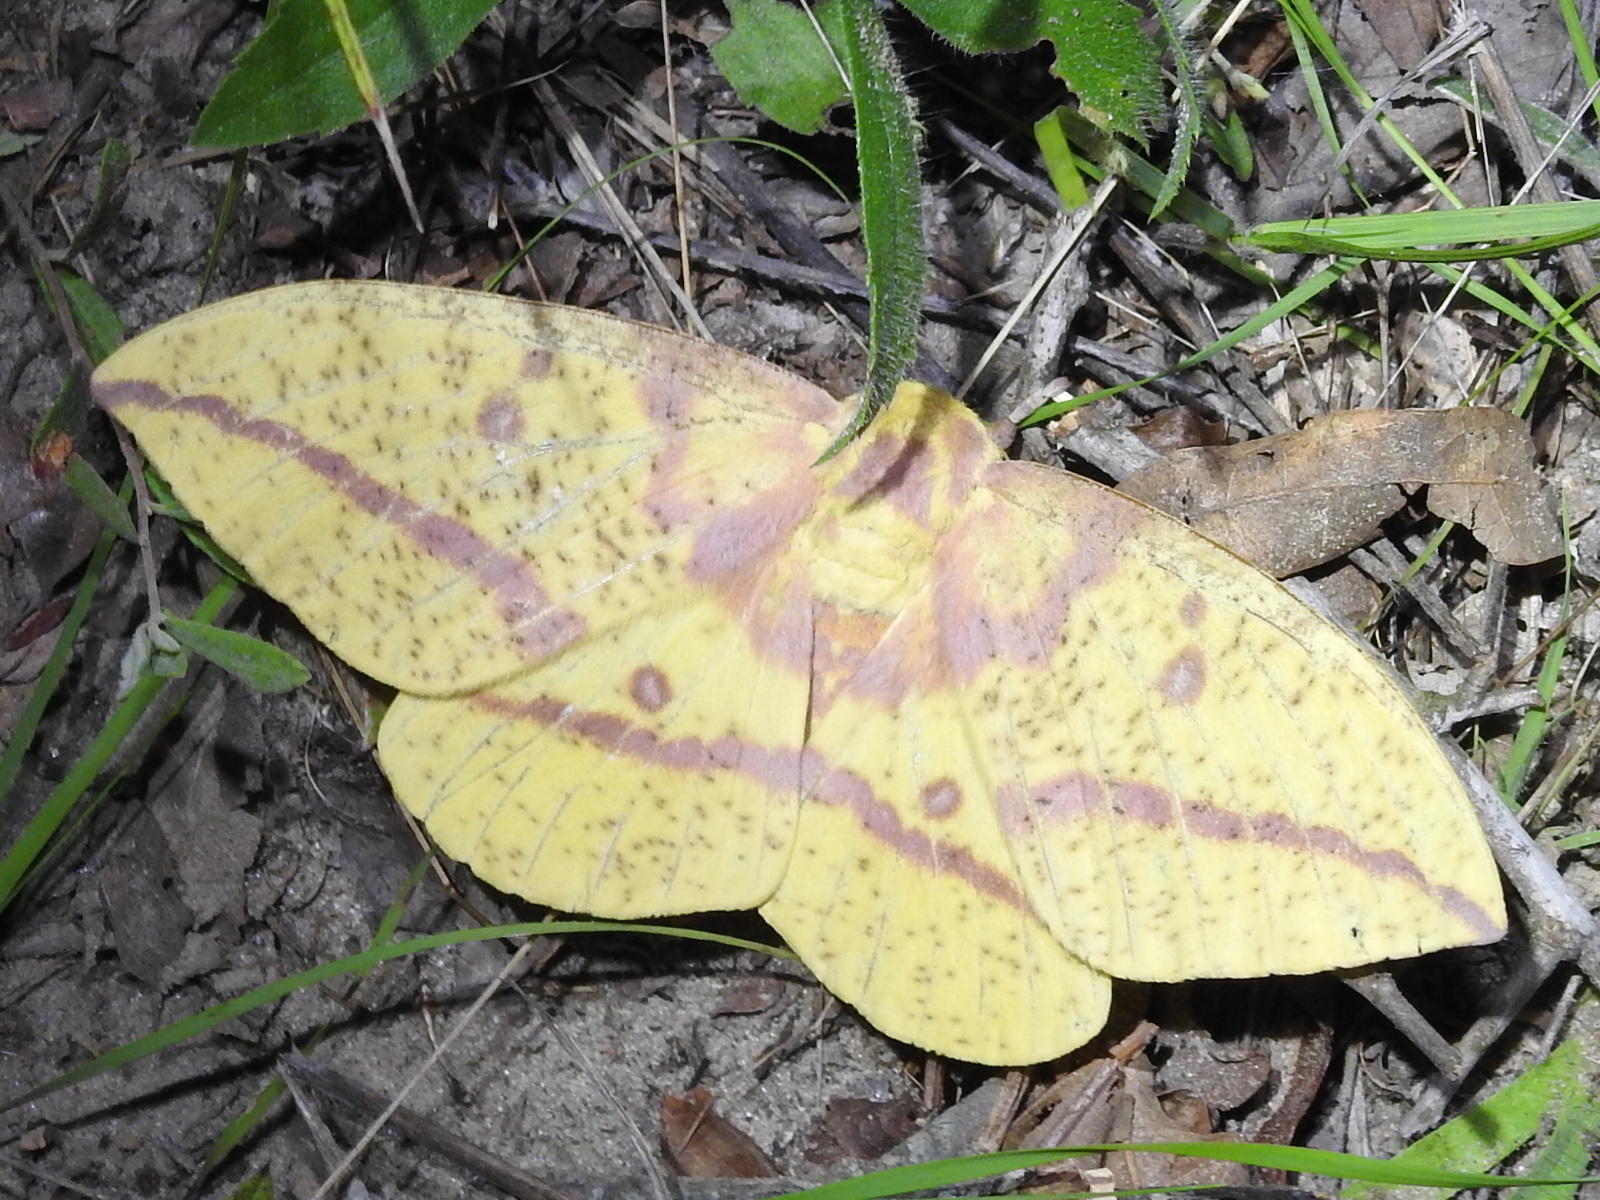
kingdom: Animalia
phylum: Arthropoda
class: Insecta
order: Lepidoptera
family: Saturniidae
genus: Eacles
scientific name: Eacles imperialis
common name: Imperial moth
